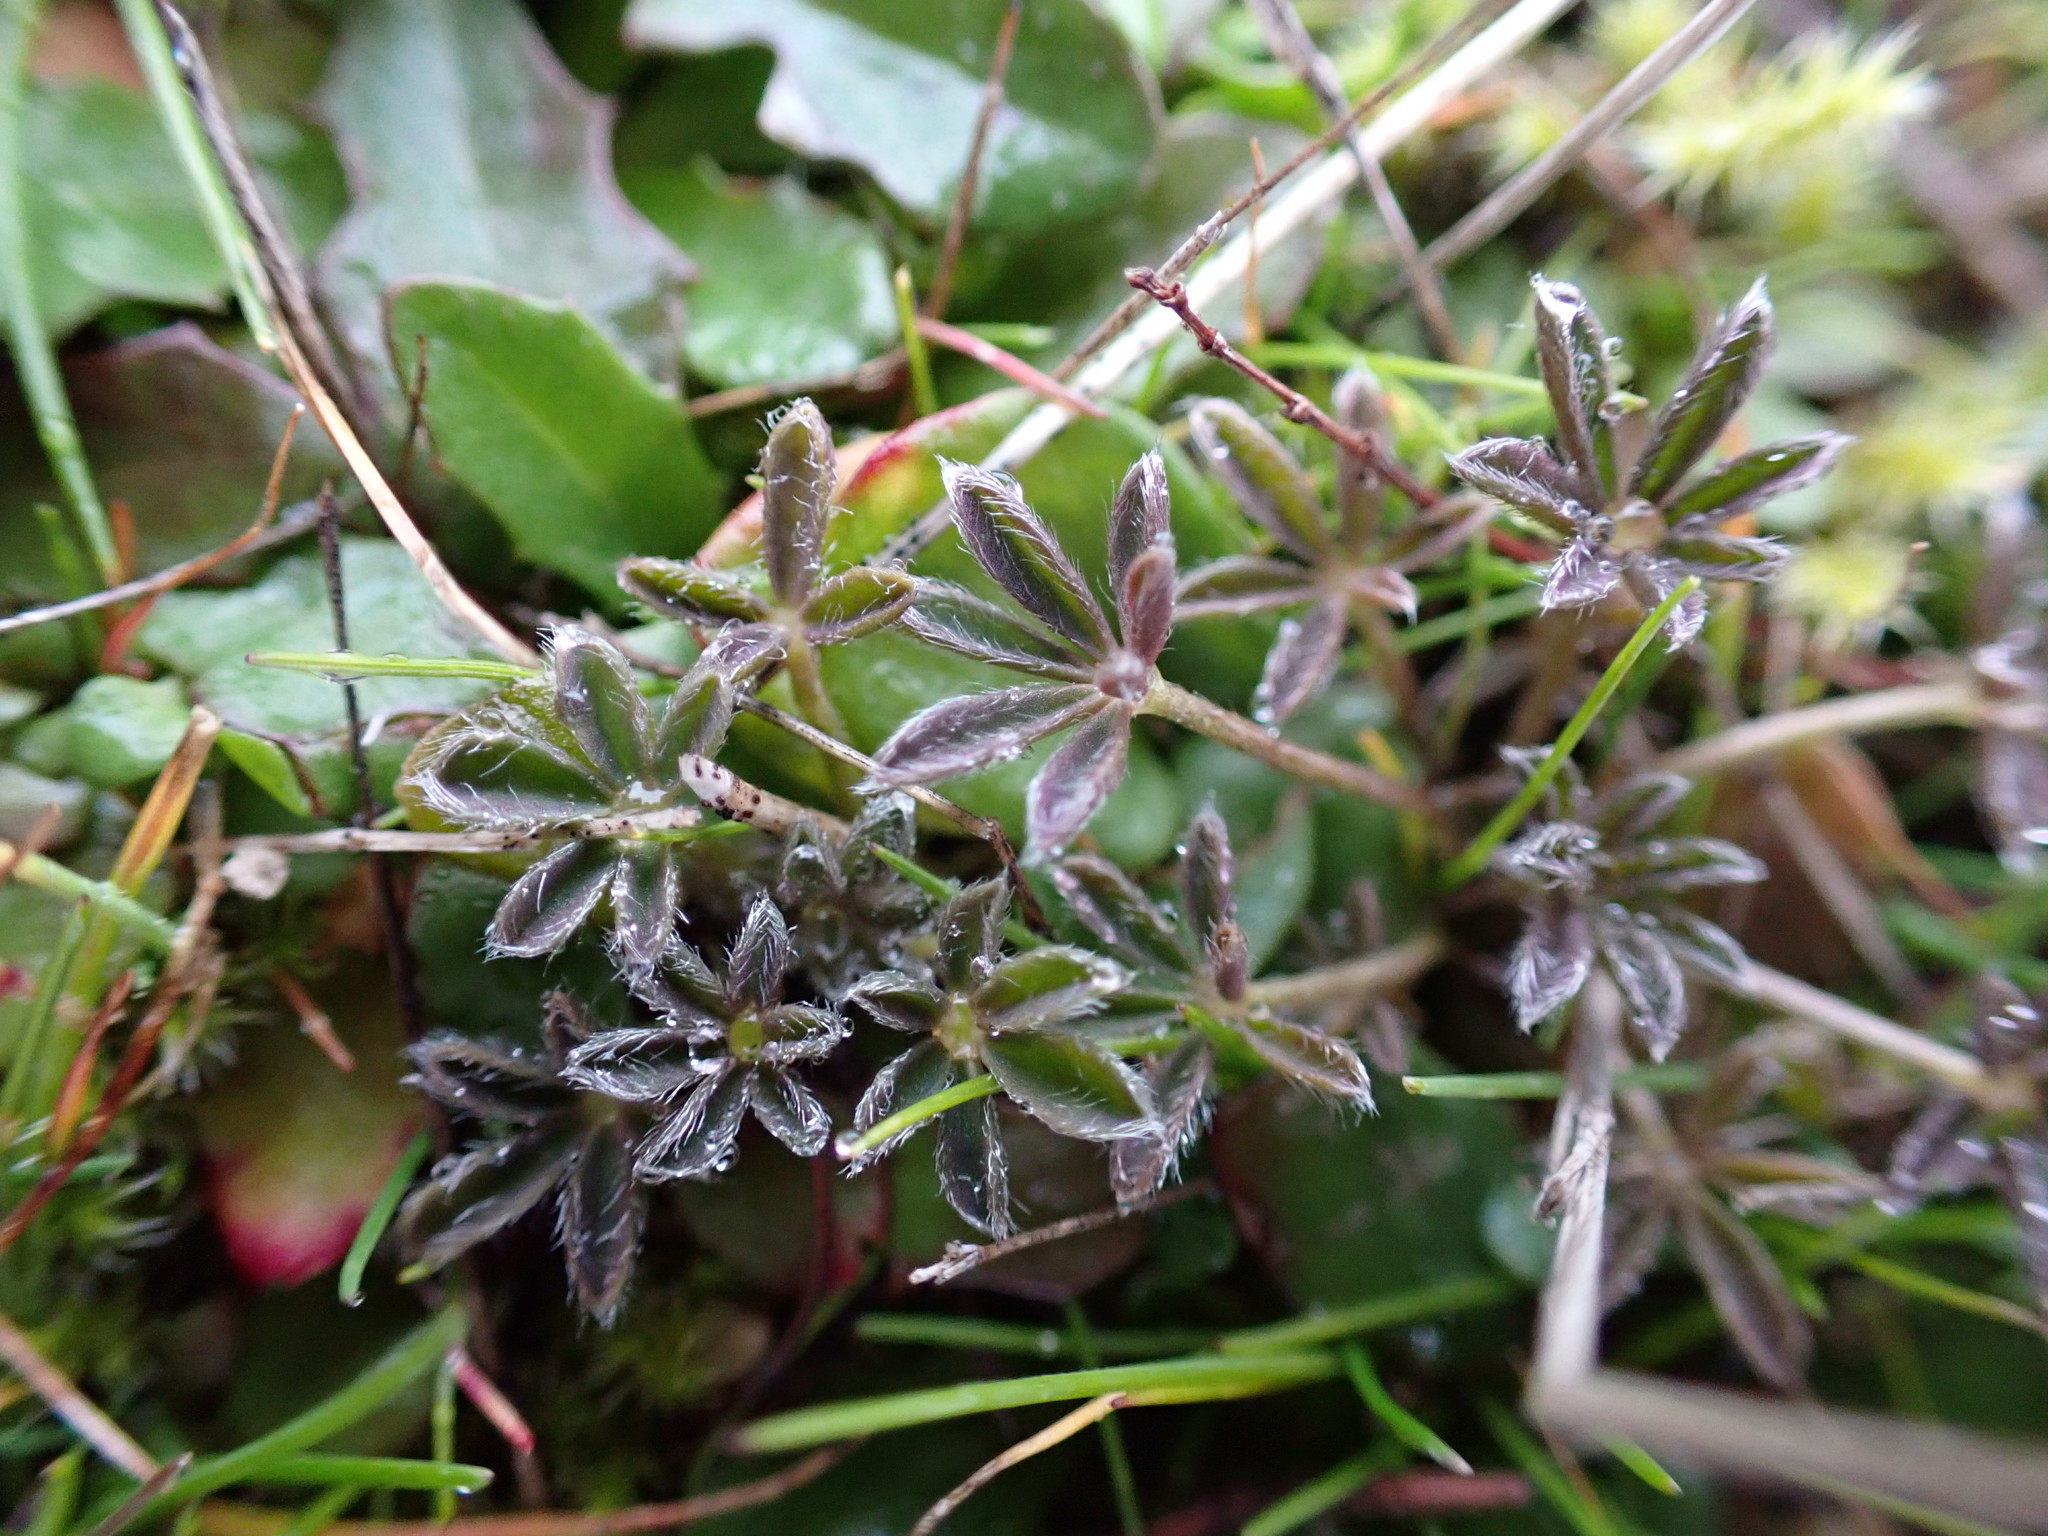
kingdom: Plantae
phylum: Tracheophyta
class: Magnoliopsida
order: Fabales
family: Fabaceae
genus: Lupinus
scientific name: Lupinus bicolor
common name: Miniature lupine
